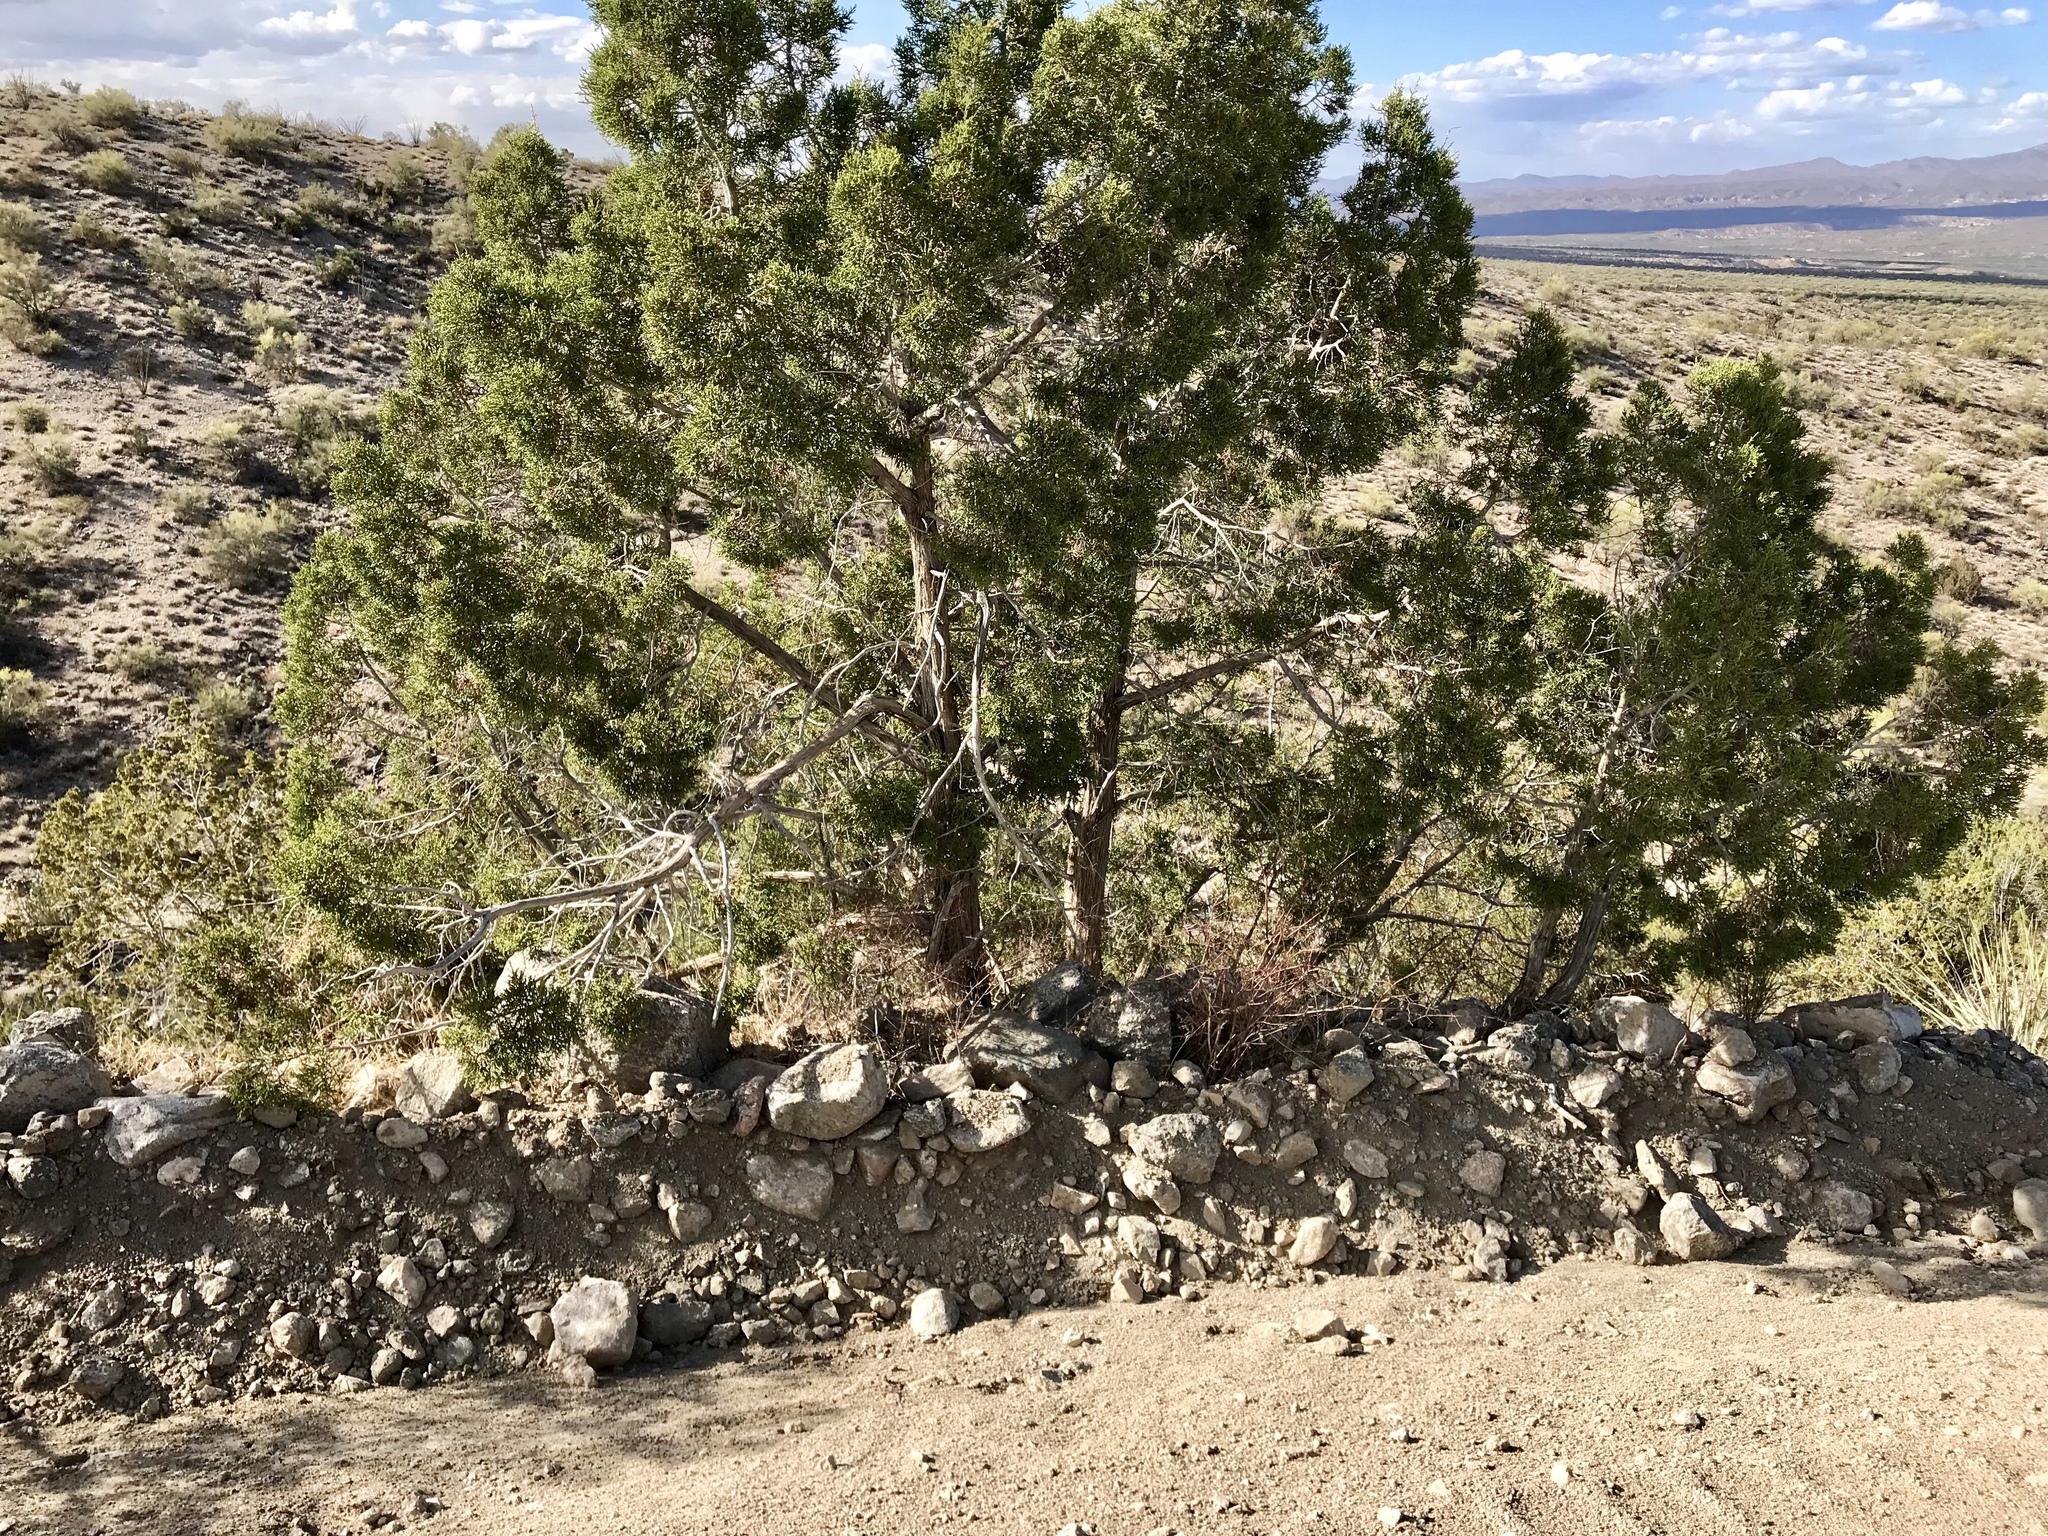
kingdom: Plantae
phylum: Tracheophyta
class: Pinopsida
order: Pinales
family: Cupressaceae
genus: Juniperus
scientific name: Juniperus californica
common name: California juniper
